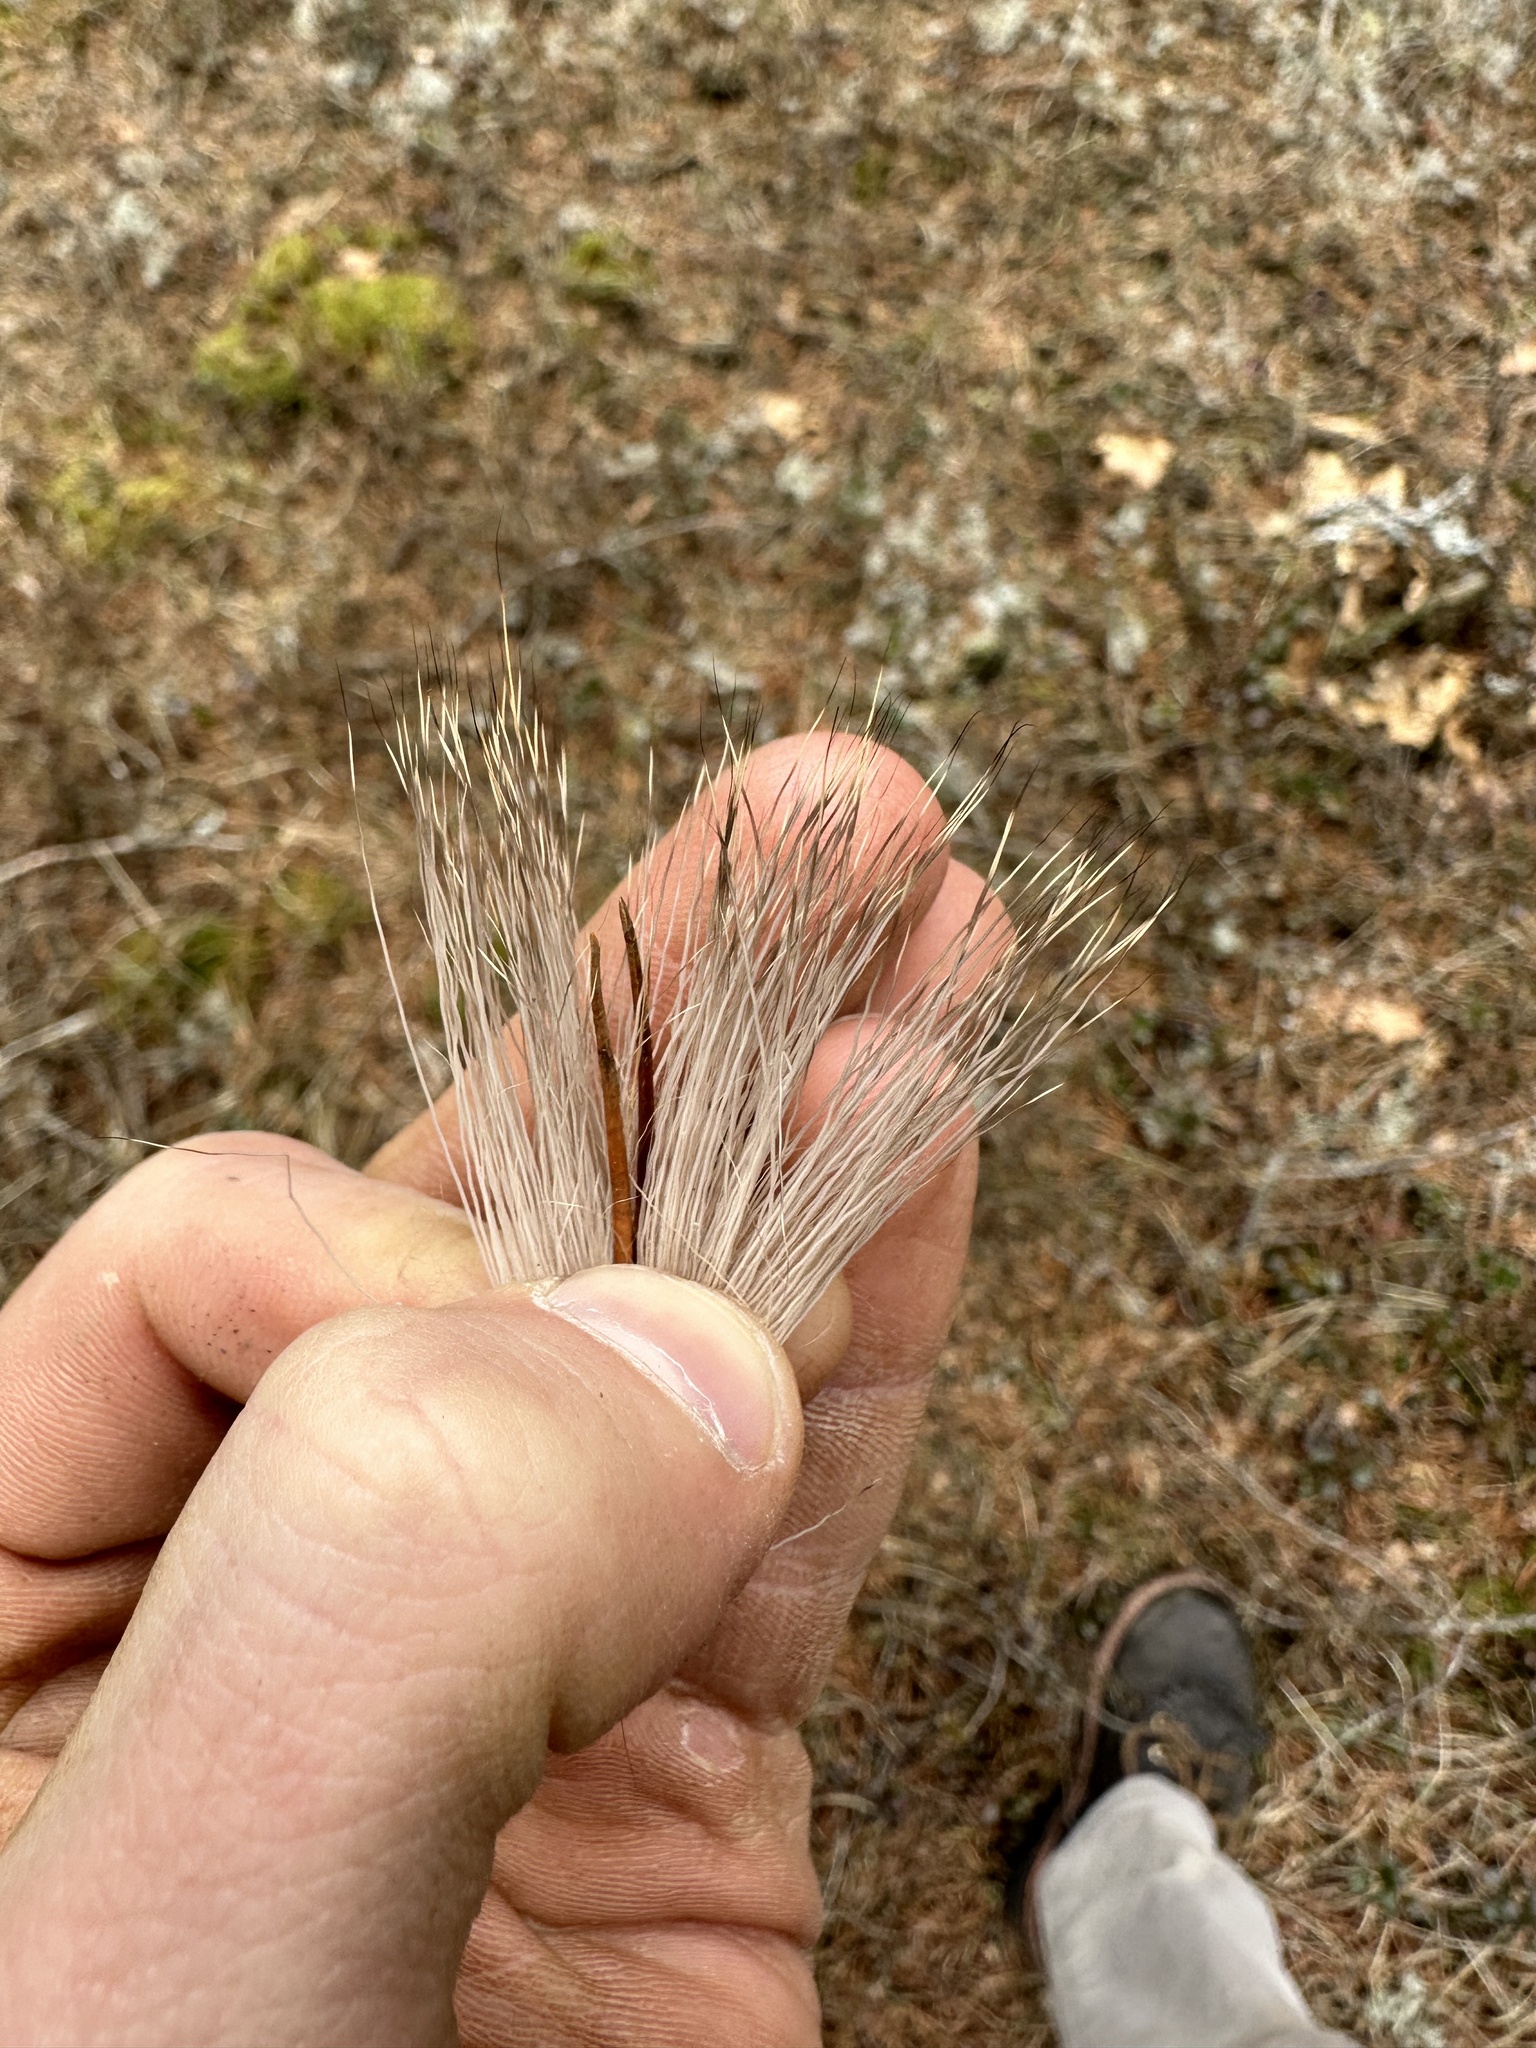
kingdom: Animalia
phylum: Chordata
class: Mammalia
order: Artiodactyla
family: Cervidae
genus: Odocoileus
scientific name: Odocoileus virginianus
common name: White-tailed deer
